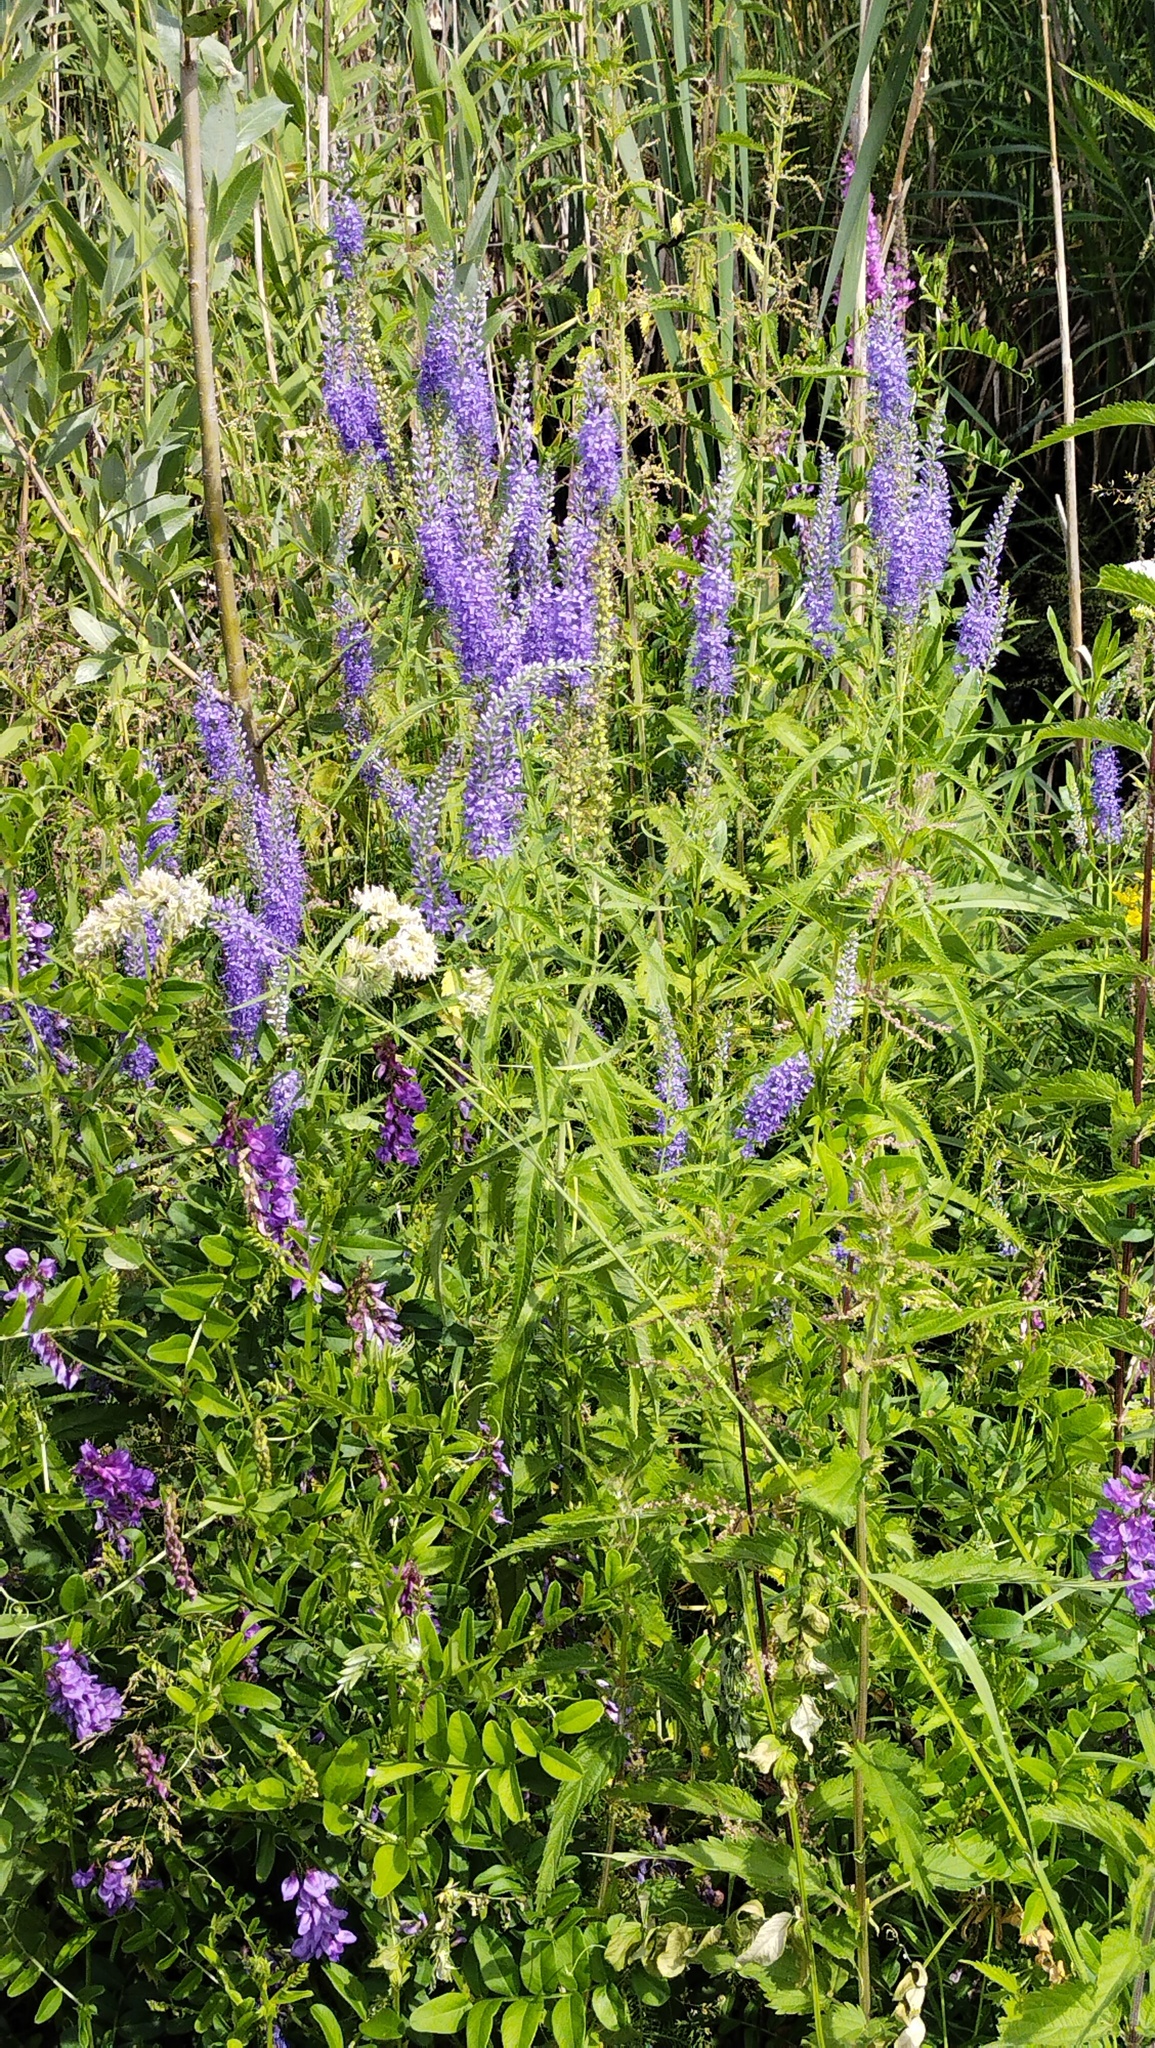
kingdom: Plantae
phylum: Tracheophyta
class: Magnoliopsida
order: Lamiales
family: Plantaginaceae
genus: Veronica
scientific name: Veronica longifolia
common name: Garden speedwell
